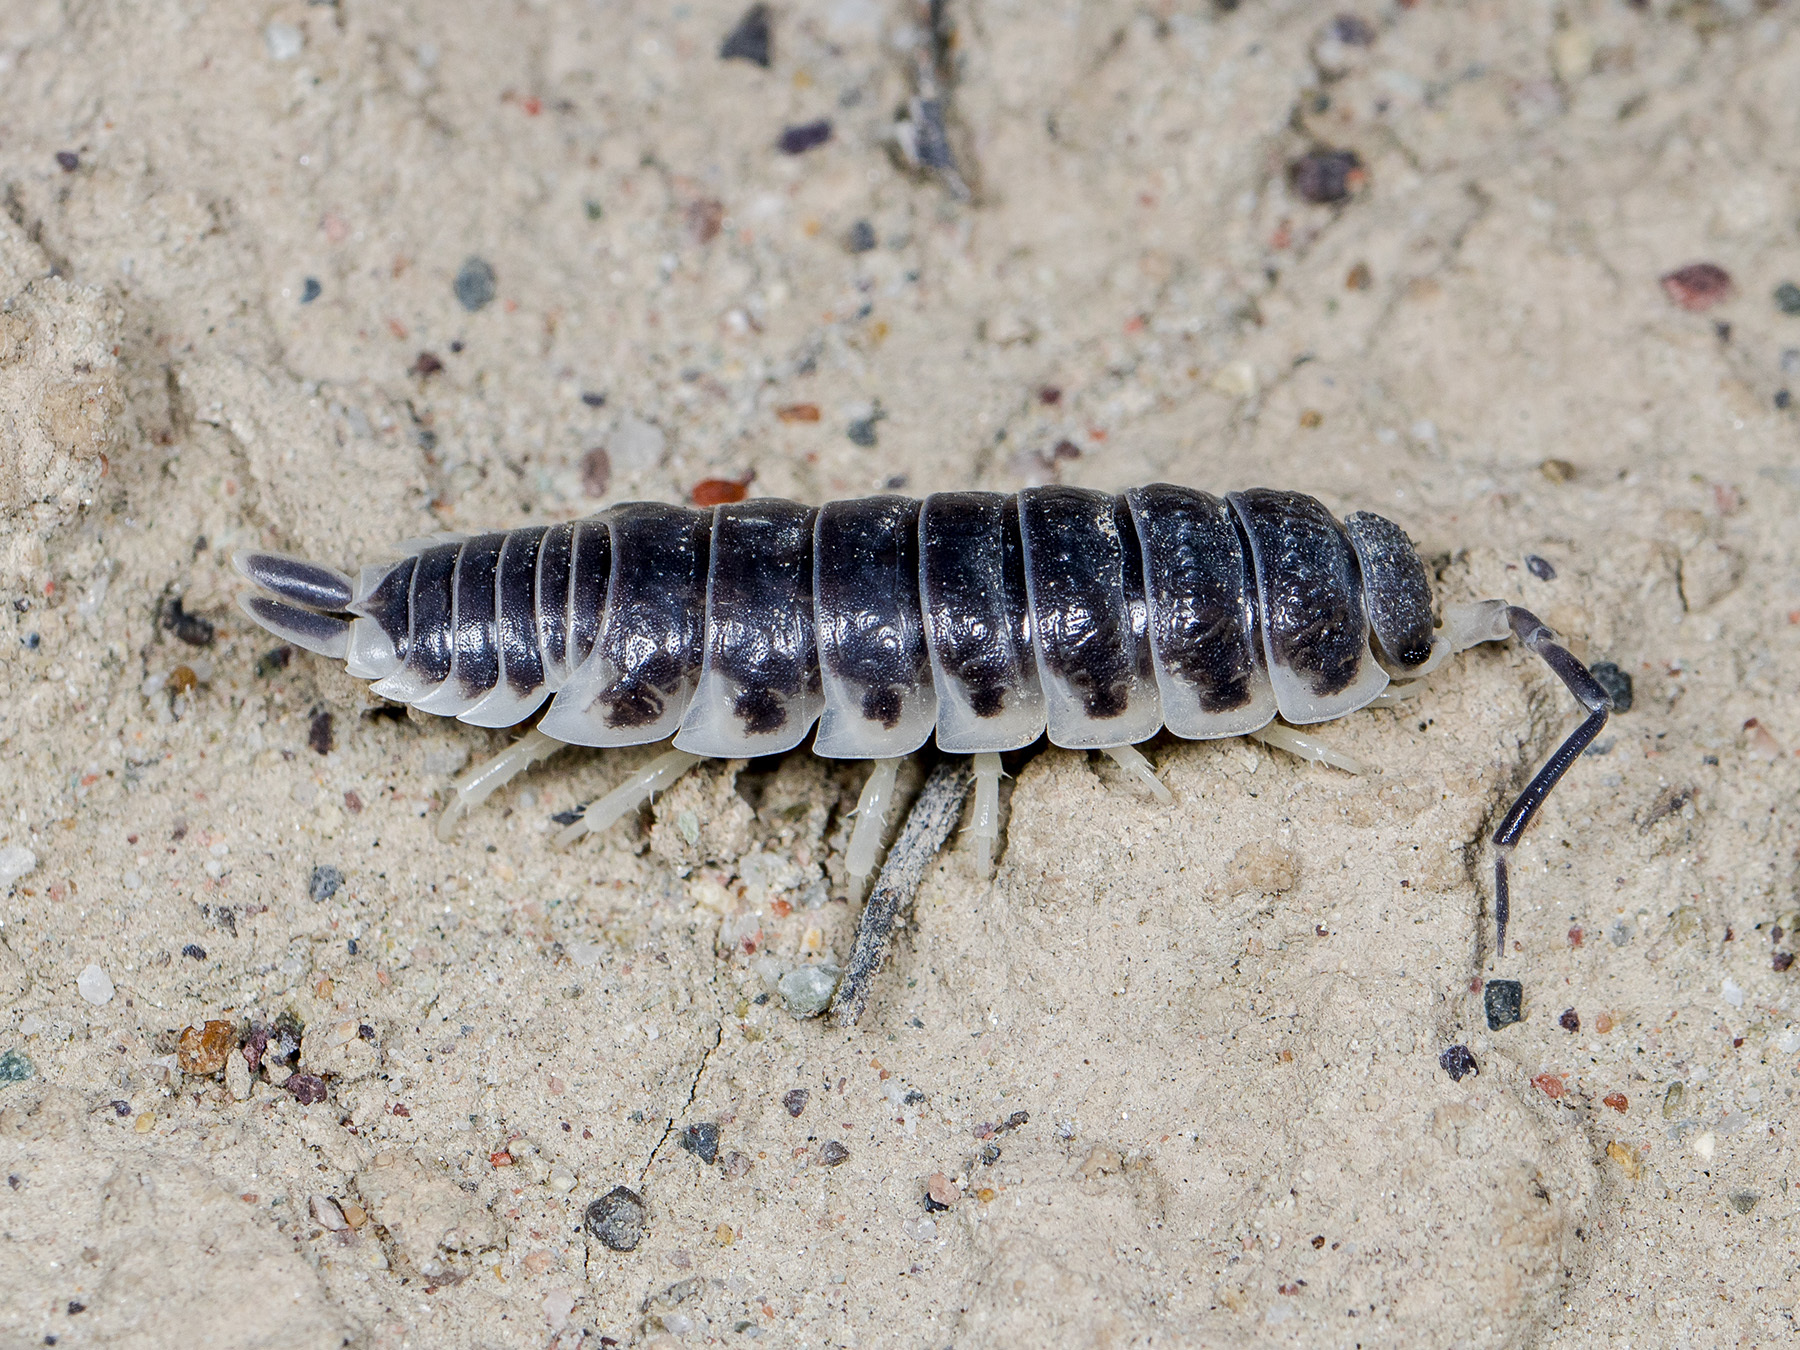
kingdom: Animalia
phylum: Arthropoda
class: Malacostraca
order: Isopoda
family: Agnaridae
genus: Hemilepistus
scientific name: Hemilepistus
